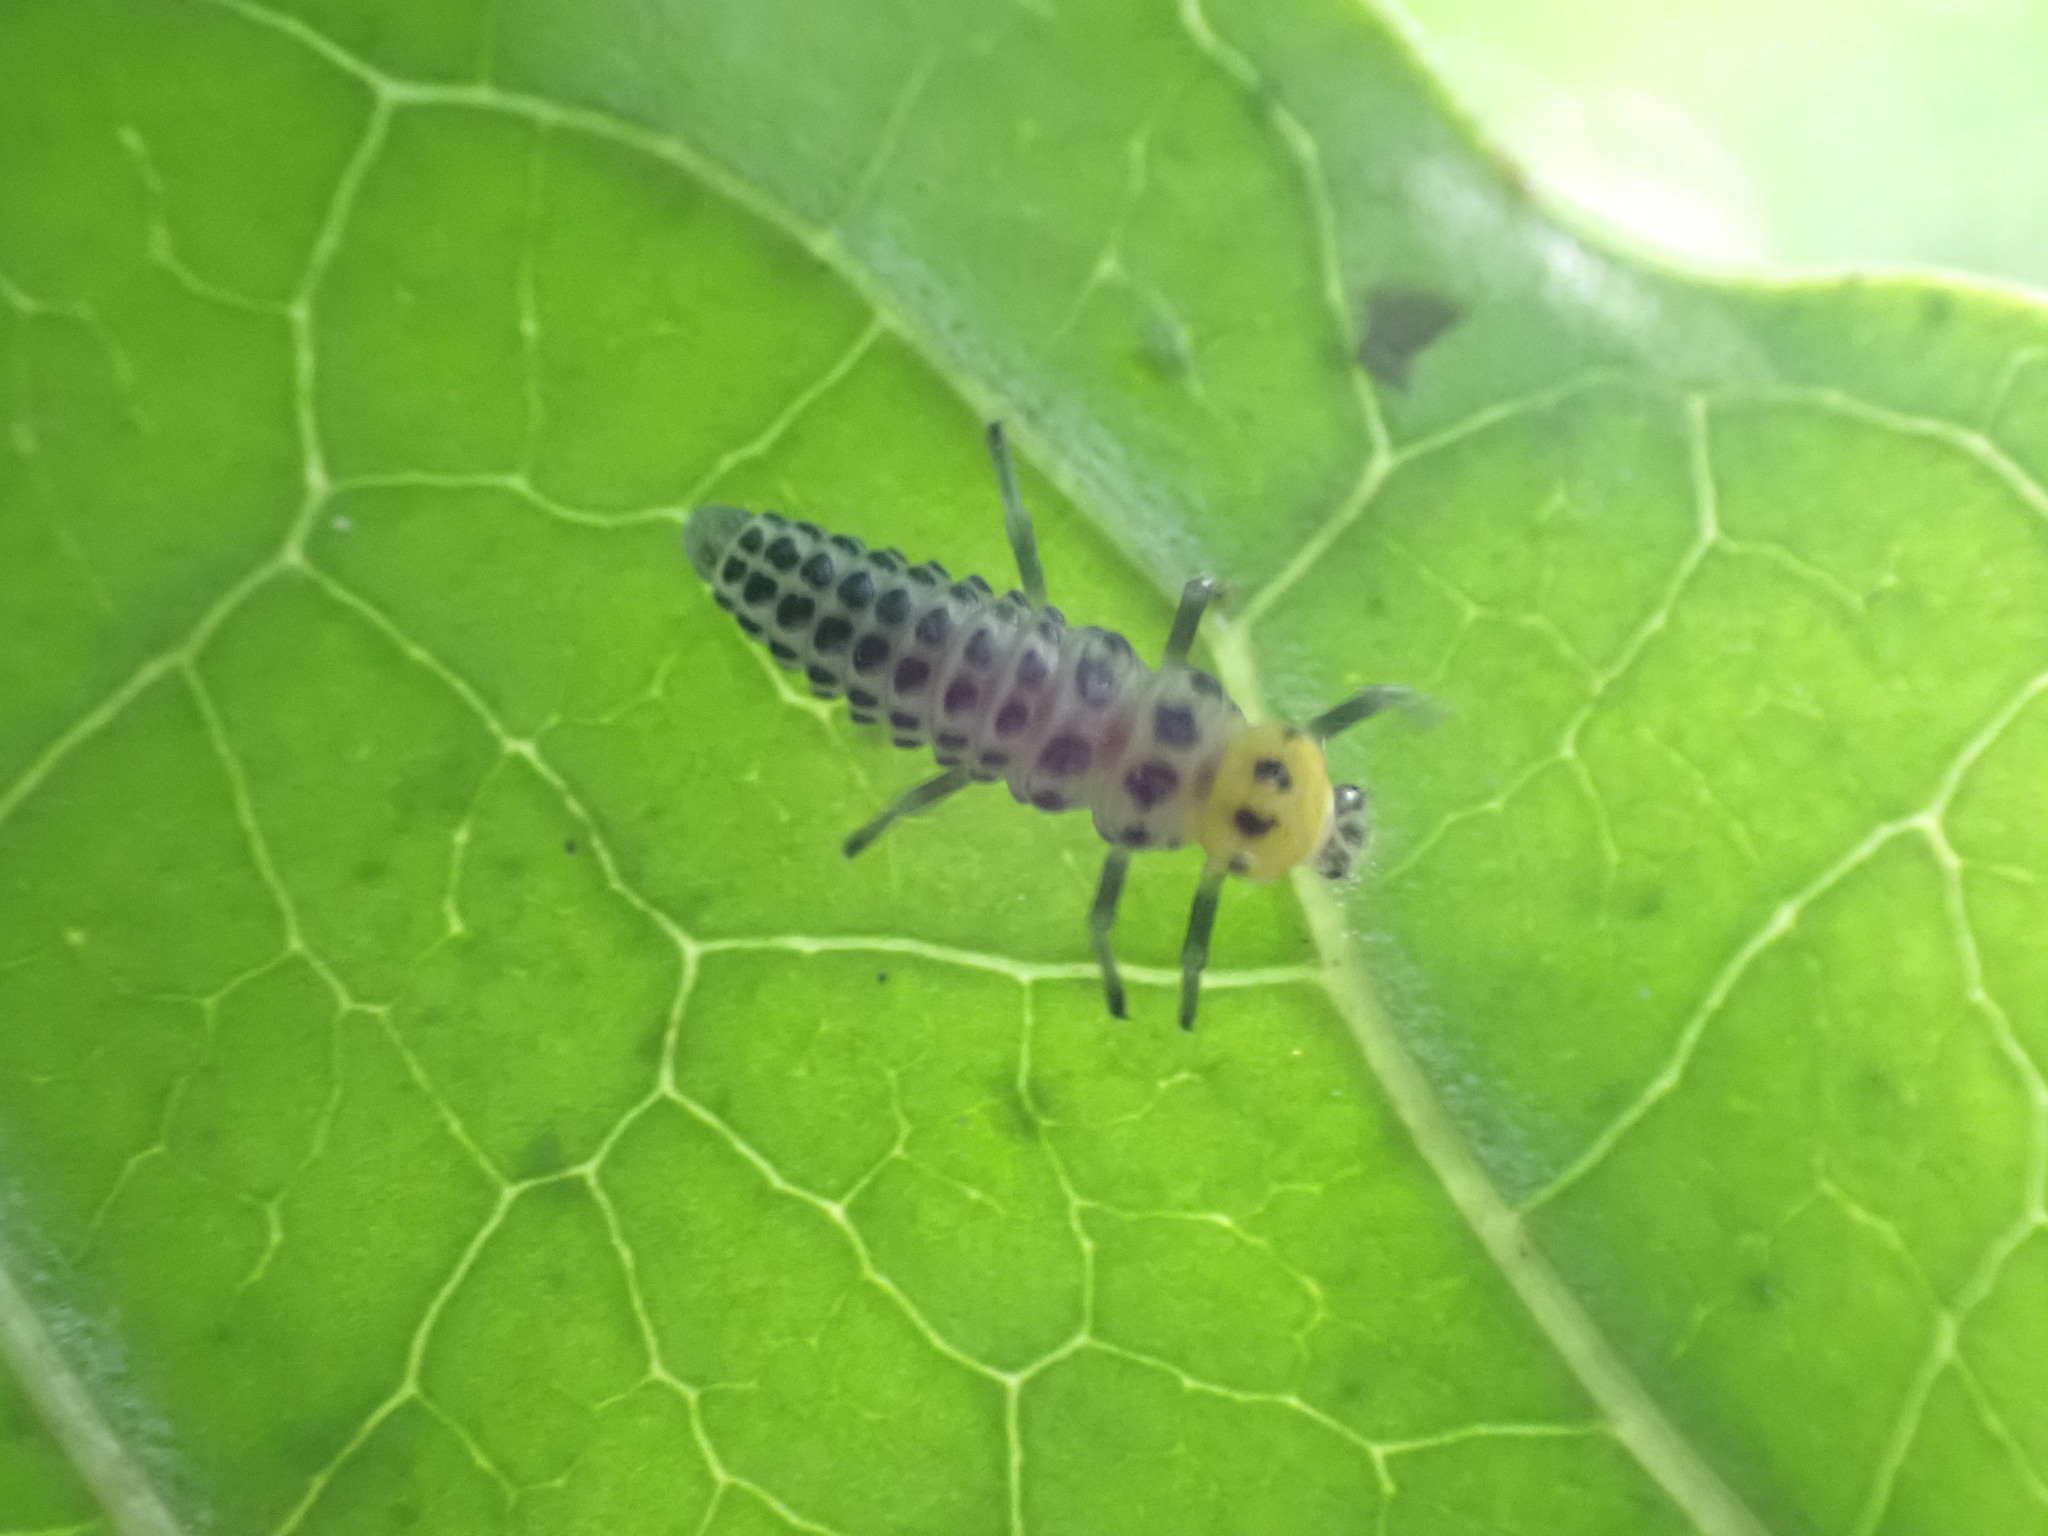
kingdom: Animalia
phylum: Arthropoda
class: Insecta
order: Coleoptera
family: Coccinellidae
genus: Illeis
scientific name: Illeis galbula
